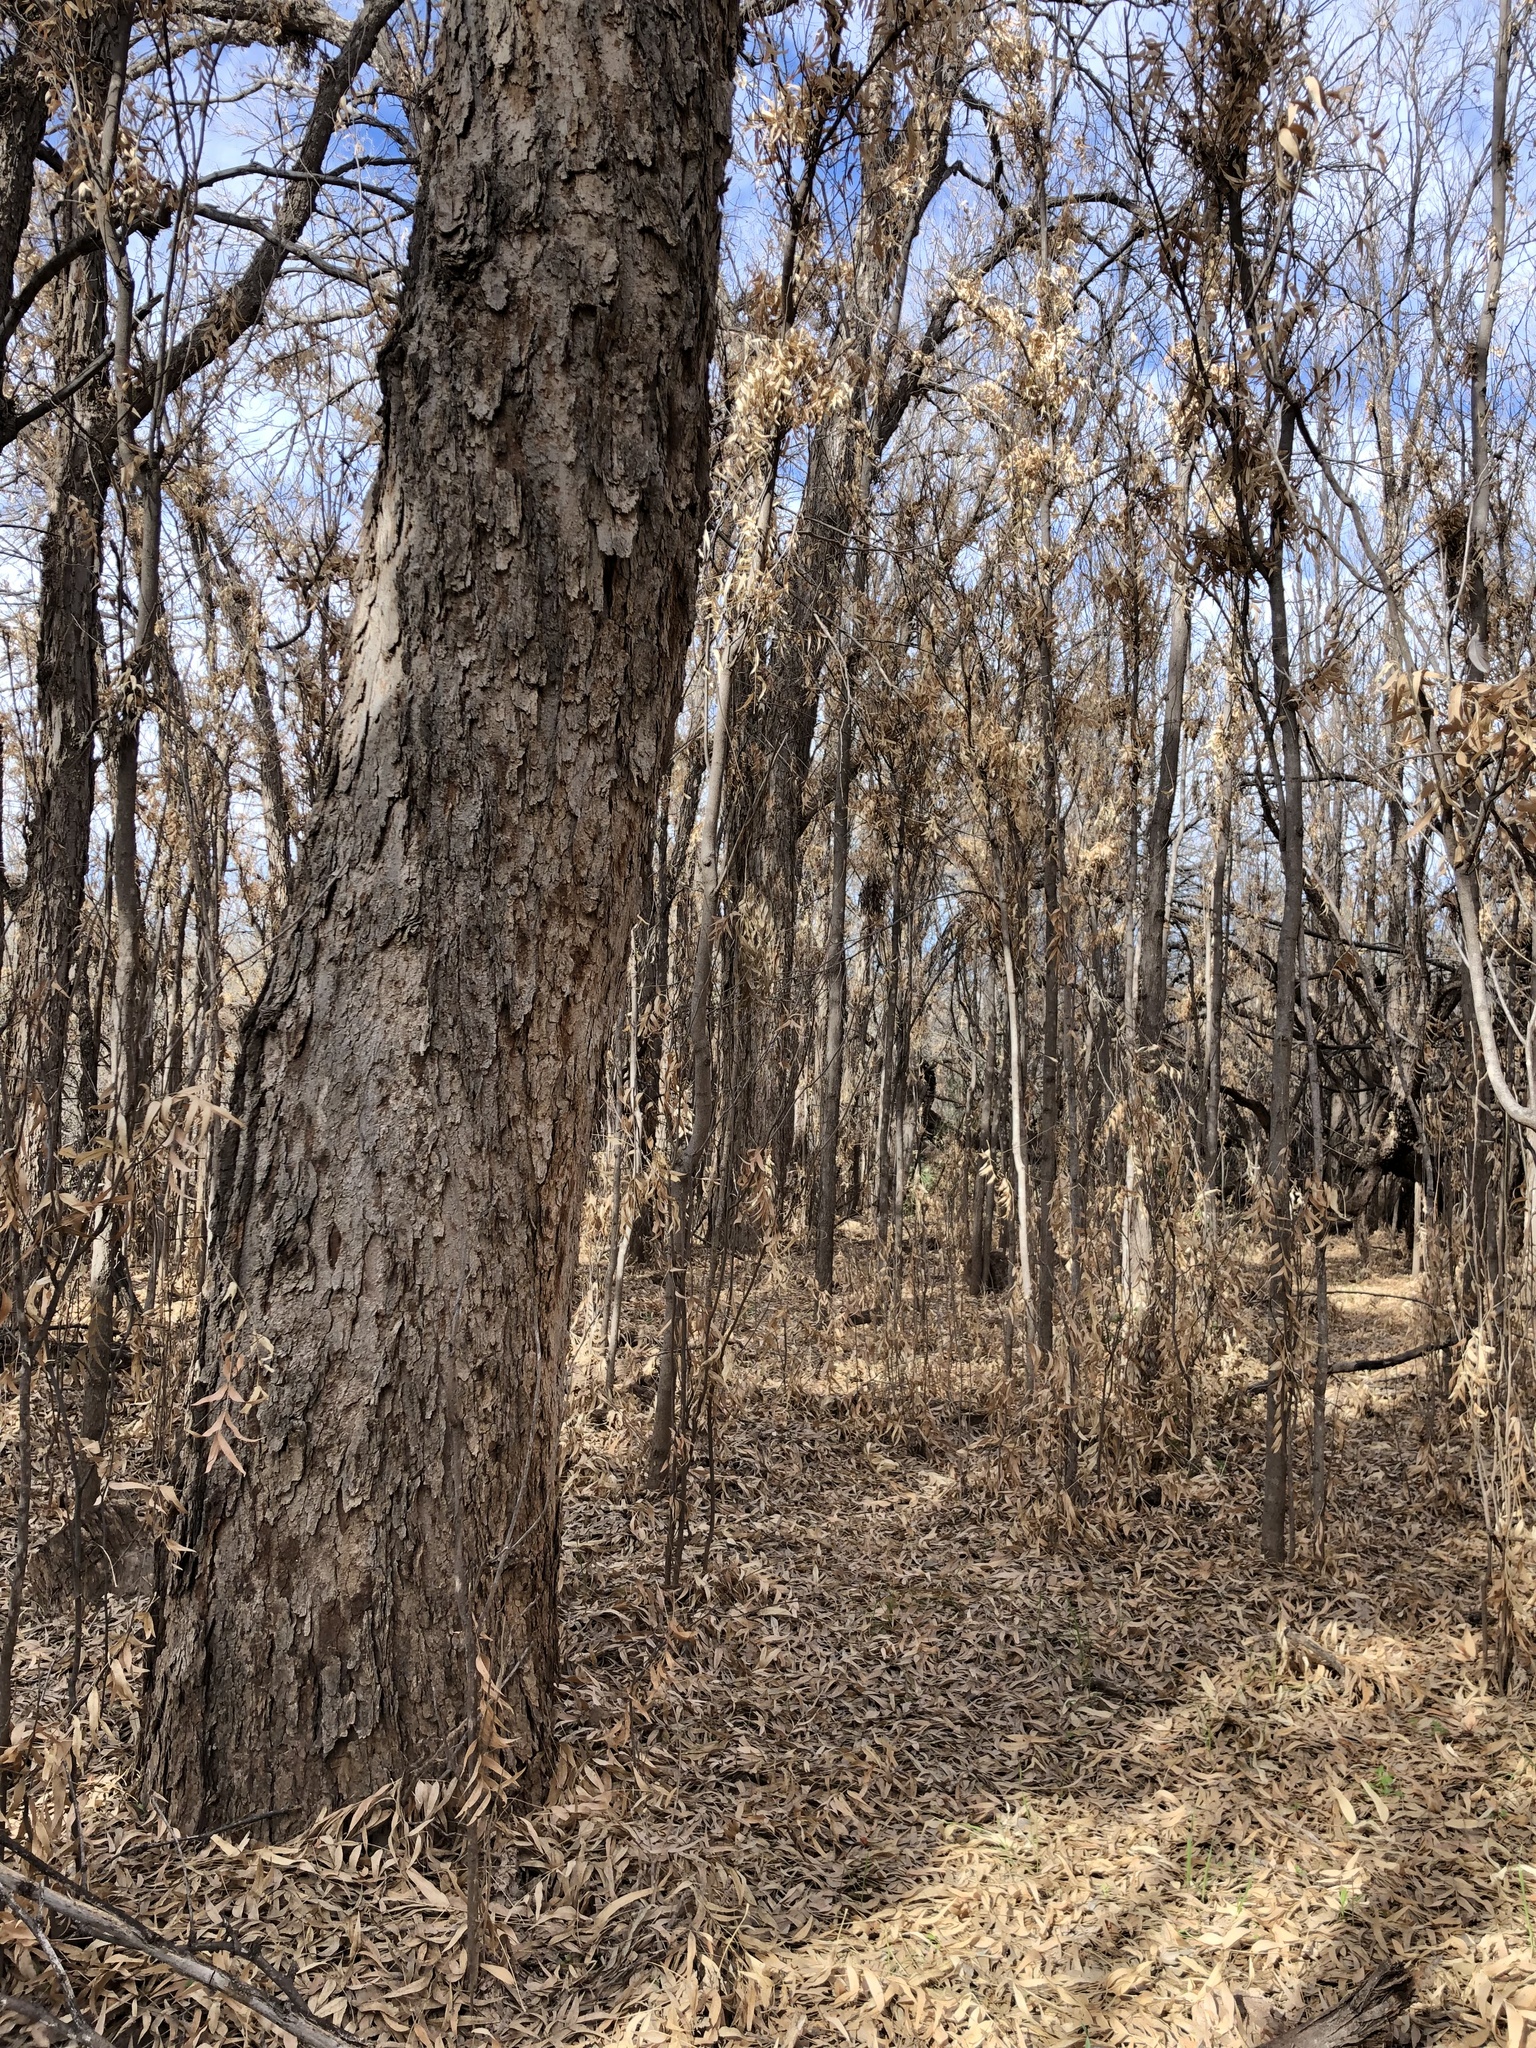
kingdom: Plantae
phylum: Tracheophyta
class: Magnoliopsida
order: Sapindales
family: Sapindaceae
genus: Sapindus
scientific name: Sapindus drummondii
